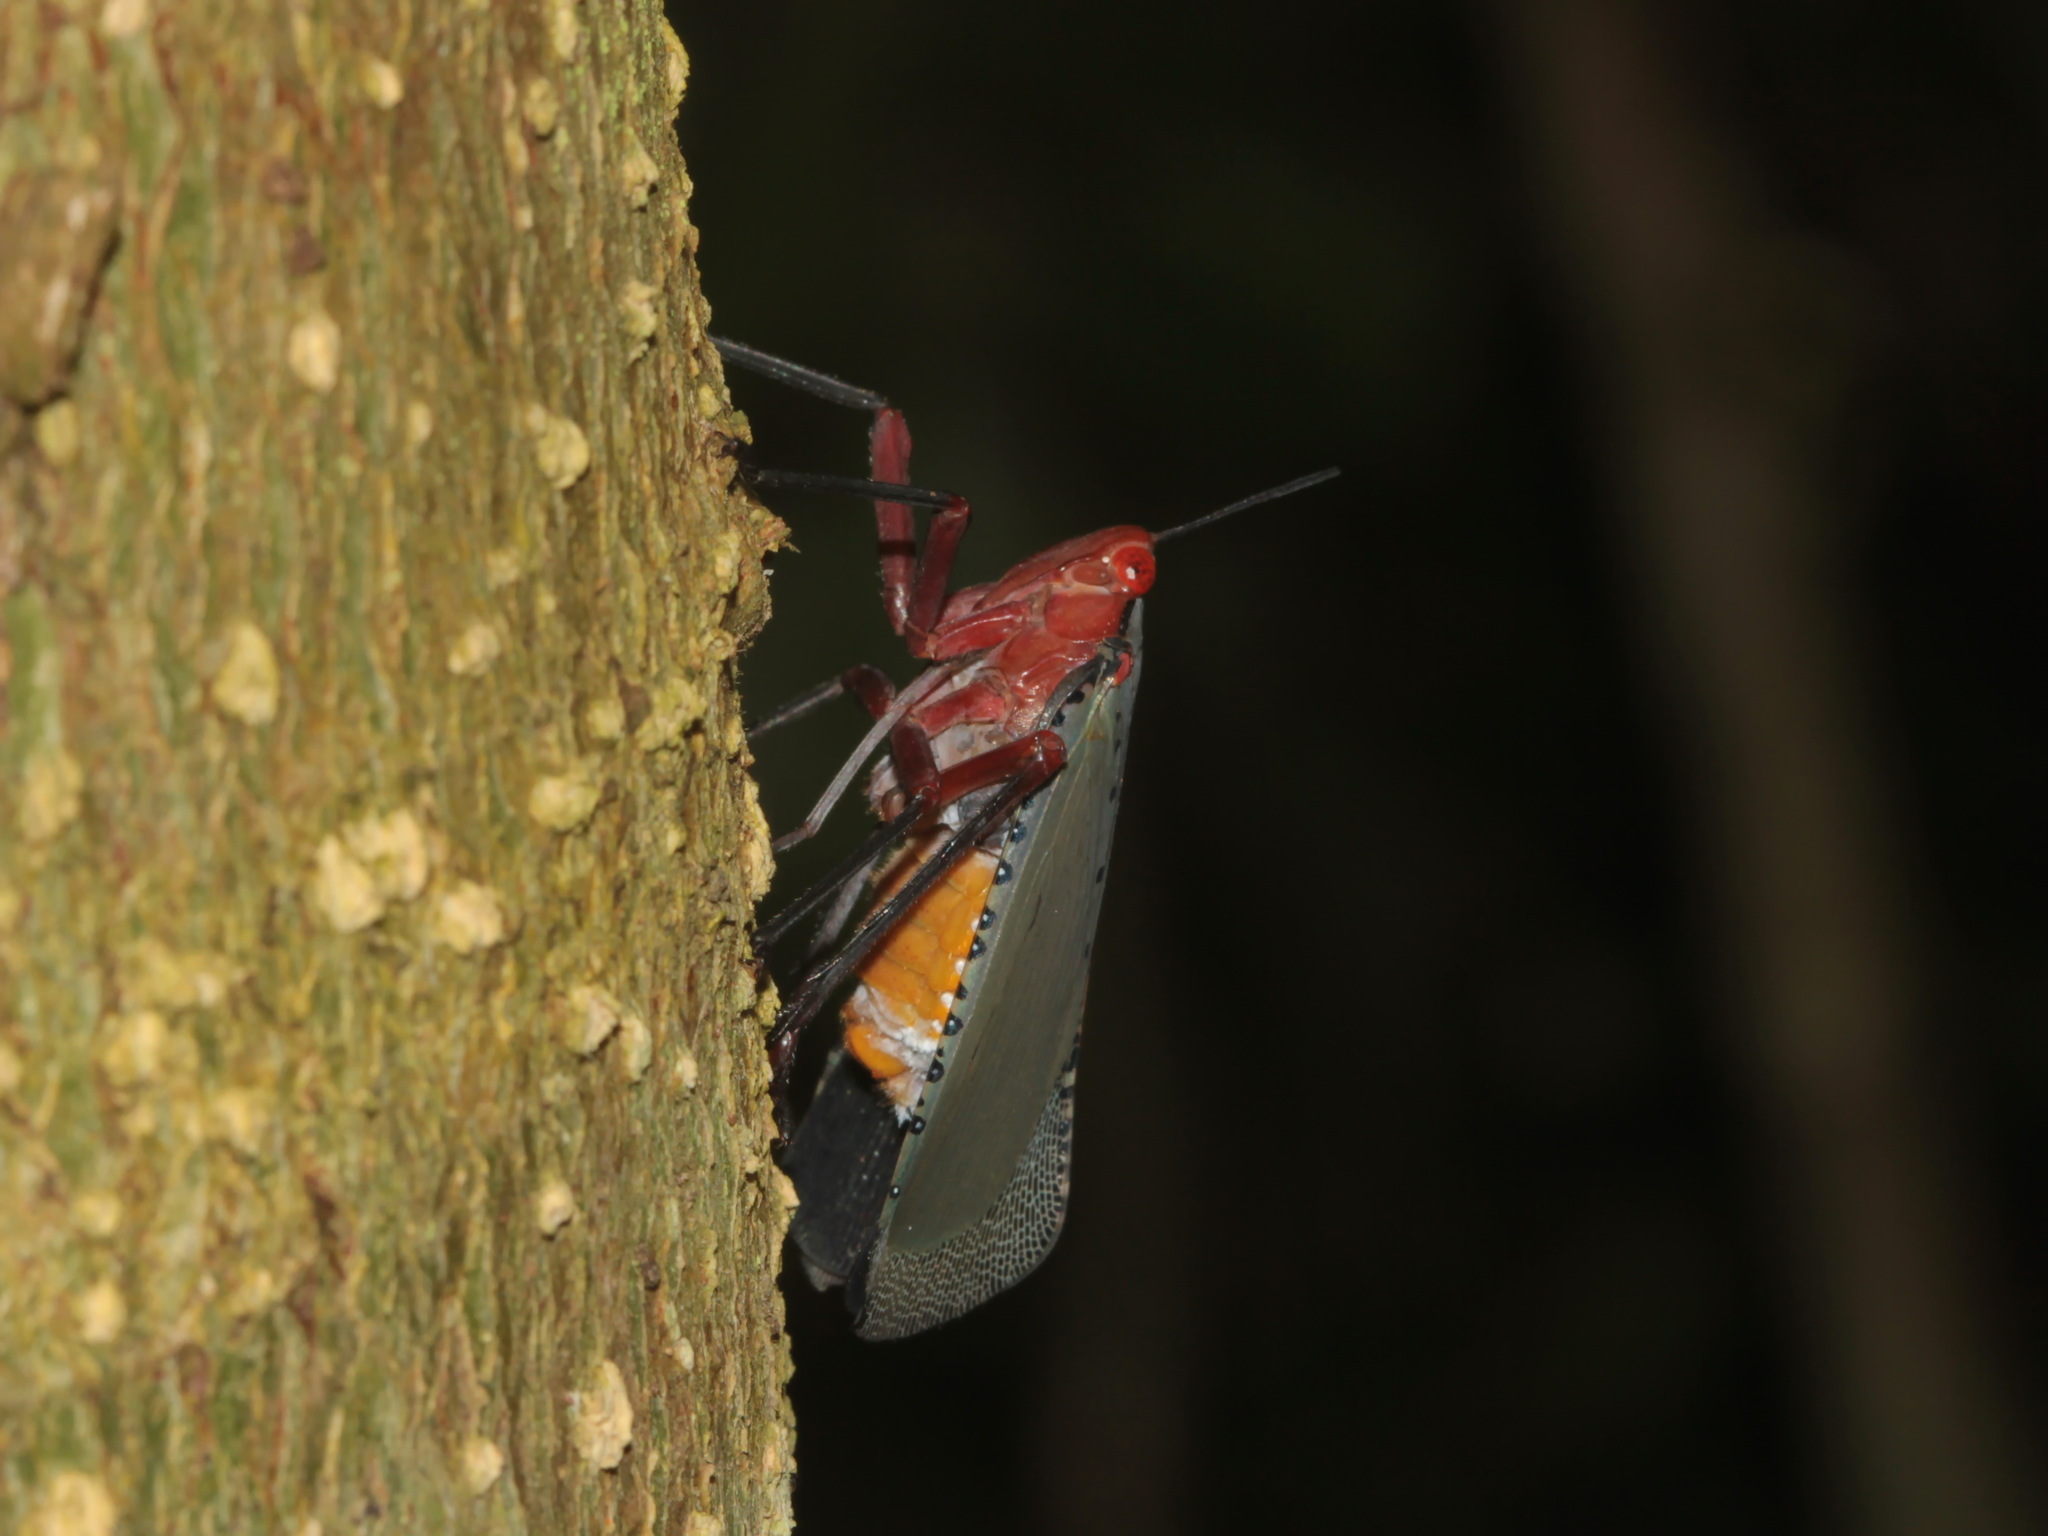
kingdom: Animalia
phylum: Arthropoda
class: Insecta
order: Hemiptera
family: Fulgoridae
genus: Kalidasa
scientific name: Kalidasa nigromaculata
